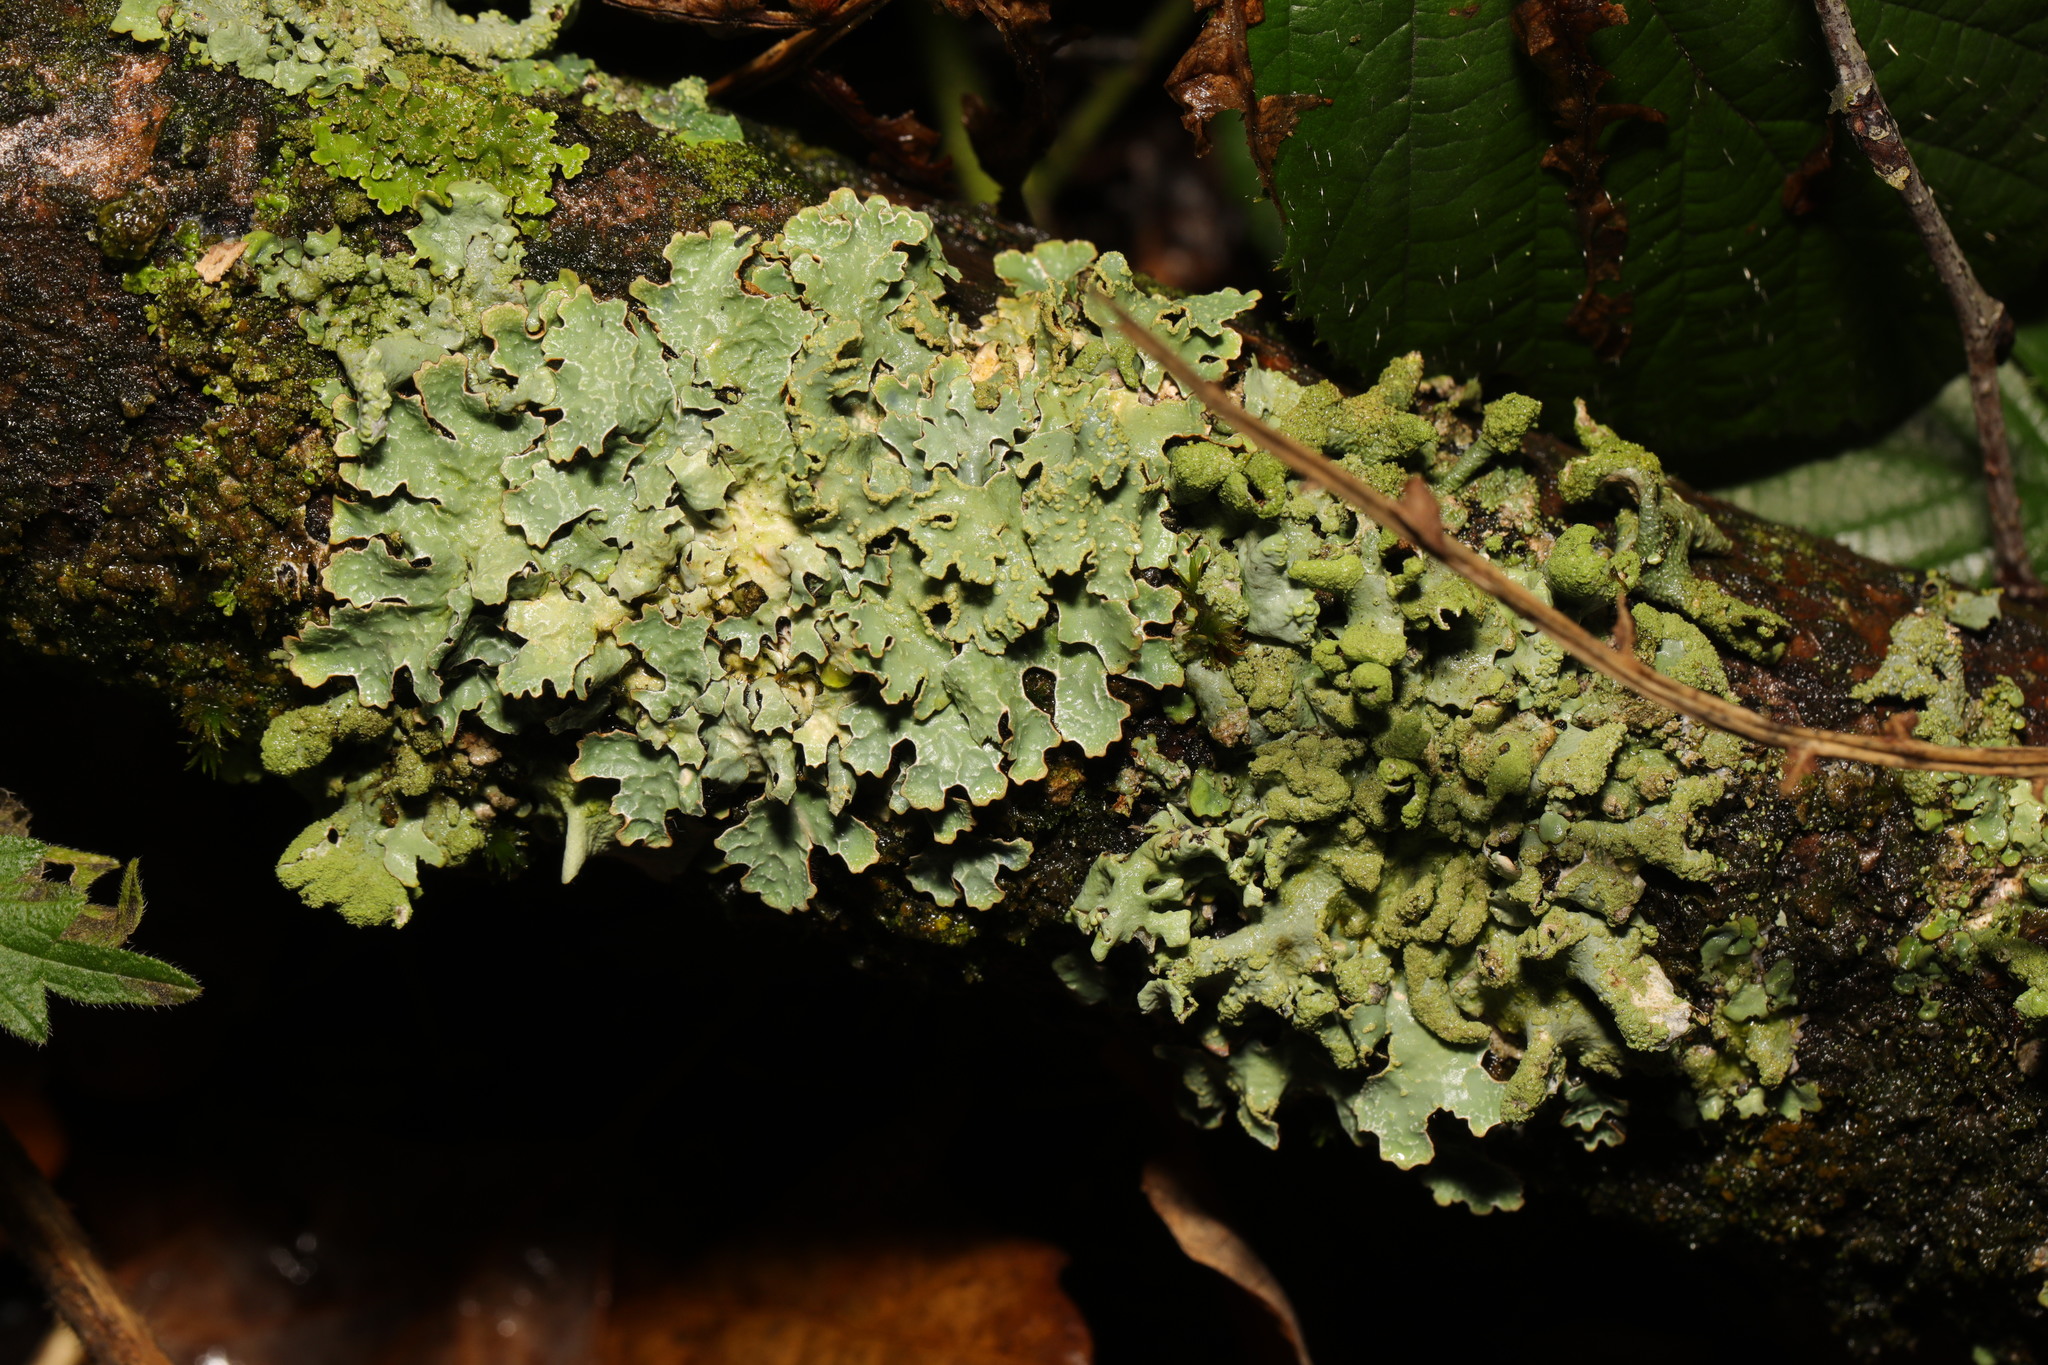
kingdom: Fungi
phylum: Ascomycota
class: Lecanoromycetes
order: Lecanorales
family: Parmeliaceae
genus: Parmelia
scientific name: Parmelia sulcata
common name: Netted shield lichen
